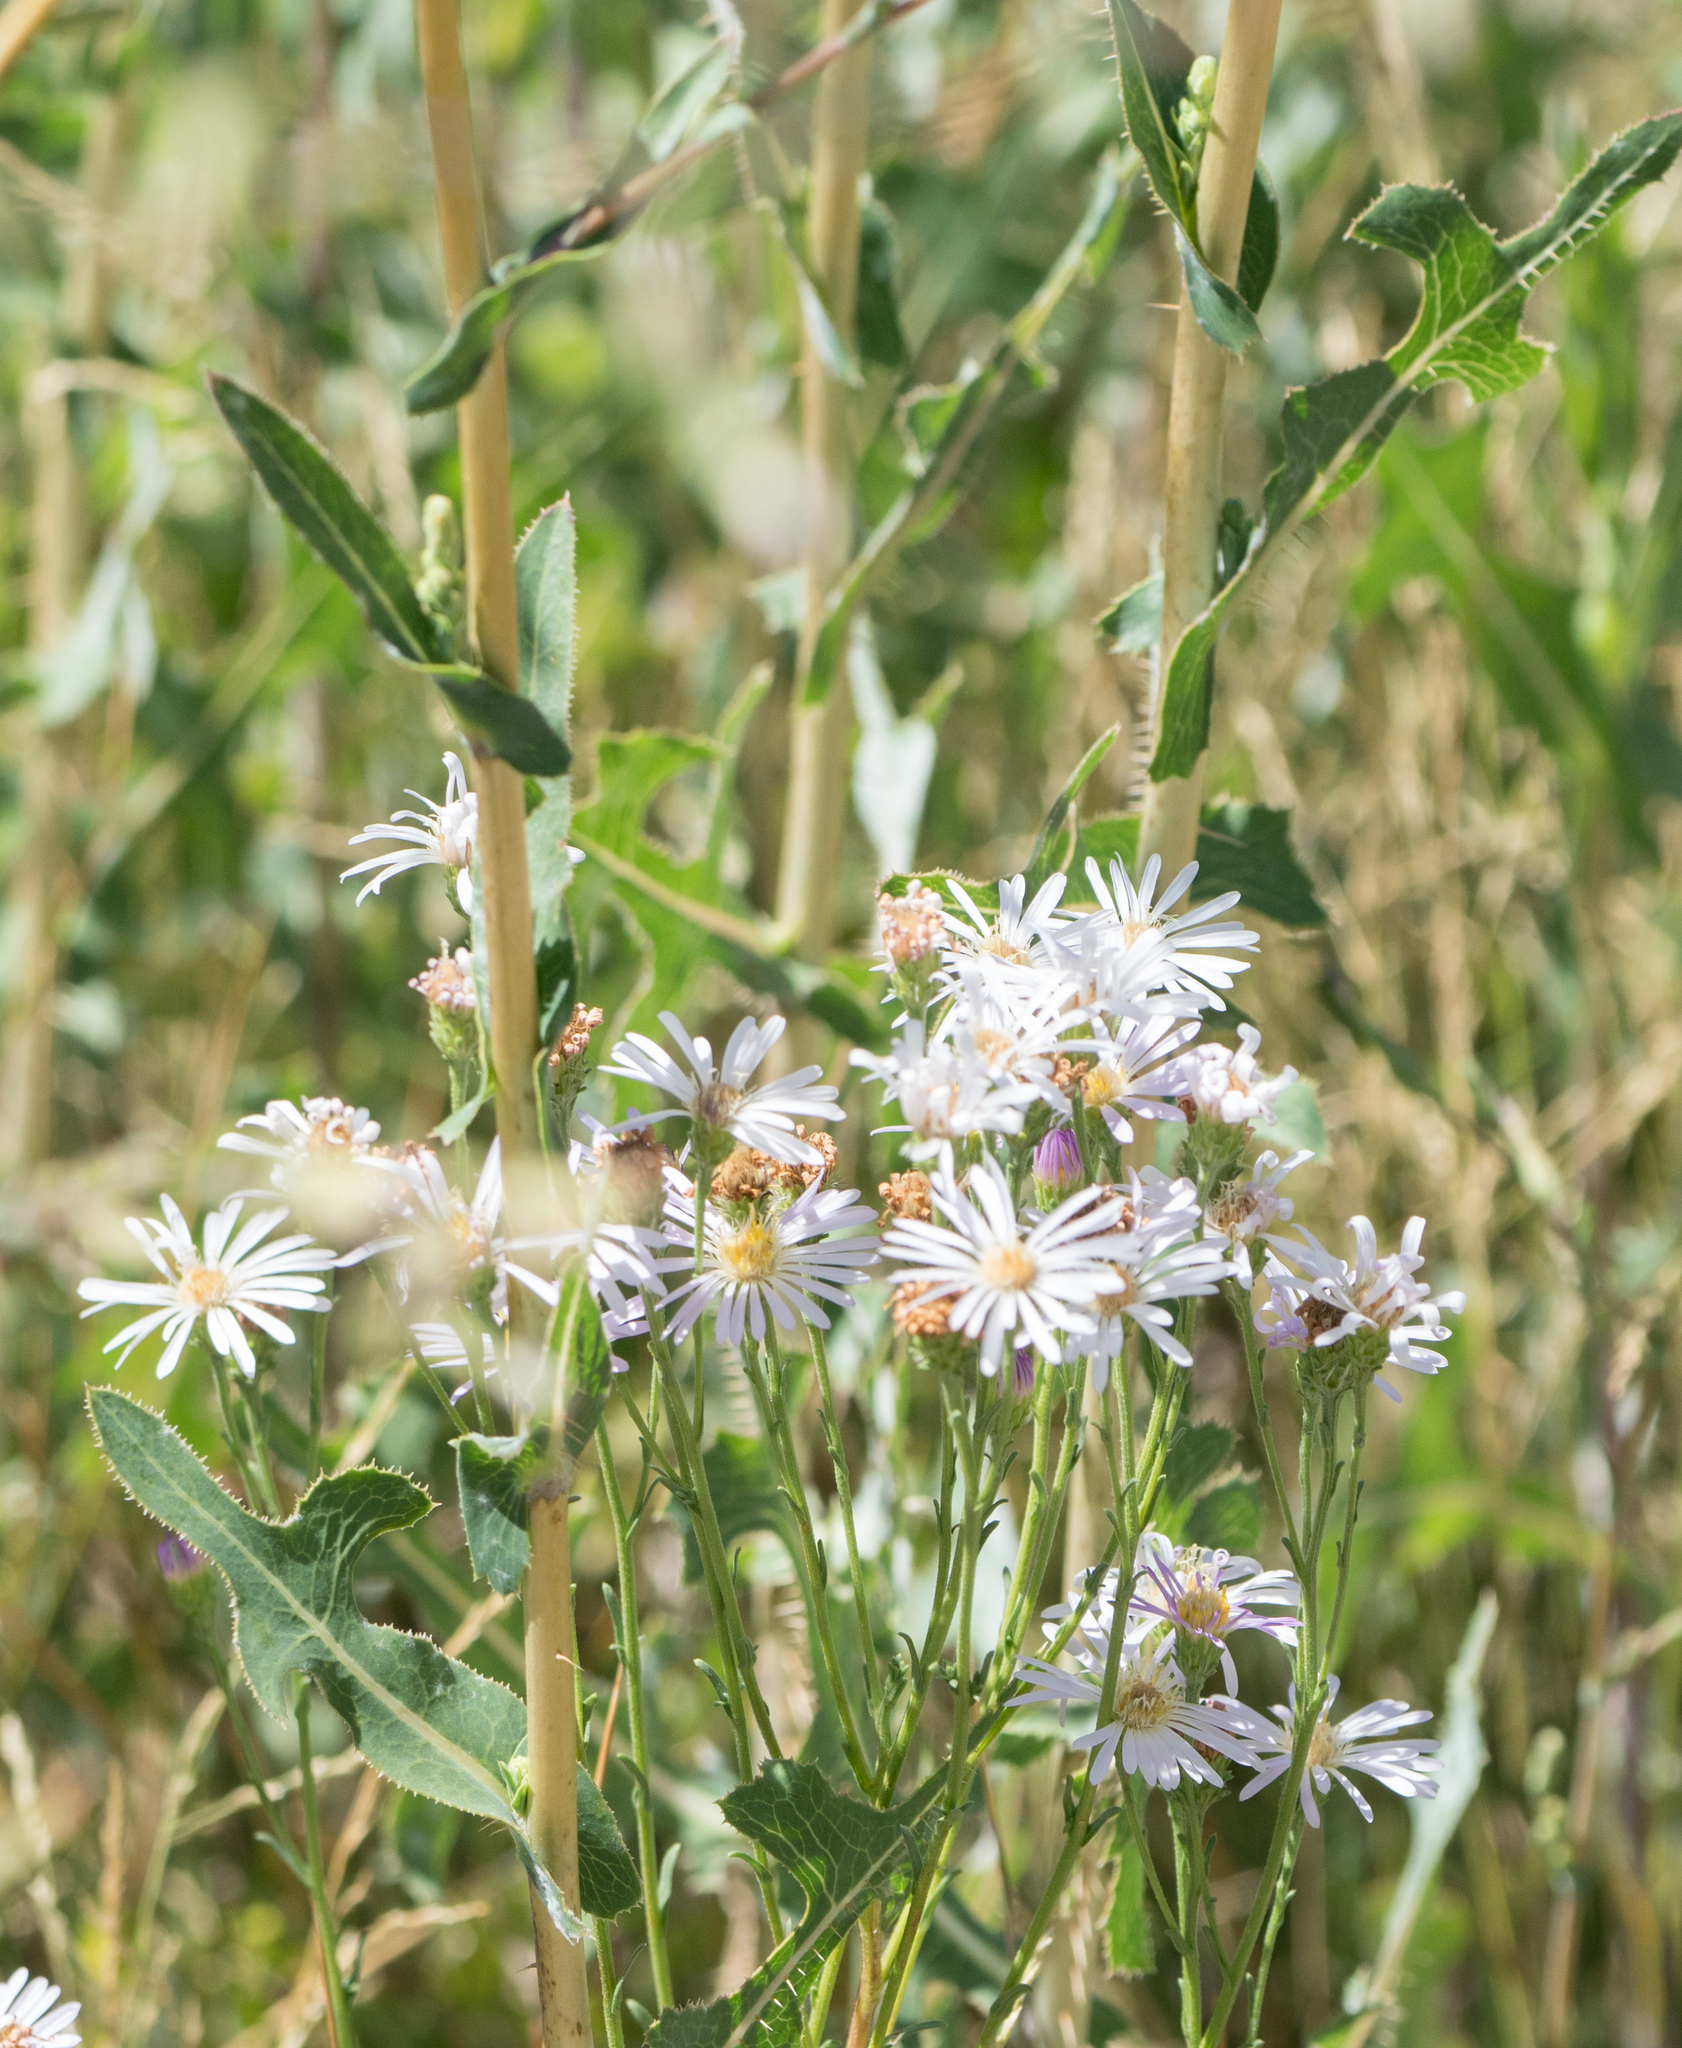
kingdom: Plantae
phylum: Tracheophyta
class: Magnoliopsida
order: Asterales
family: Asteraceae
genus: Lactuca
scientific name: Lactuca serriola
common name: Prickly lettuce
